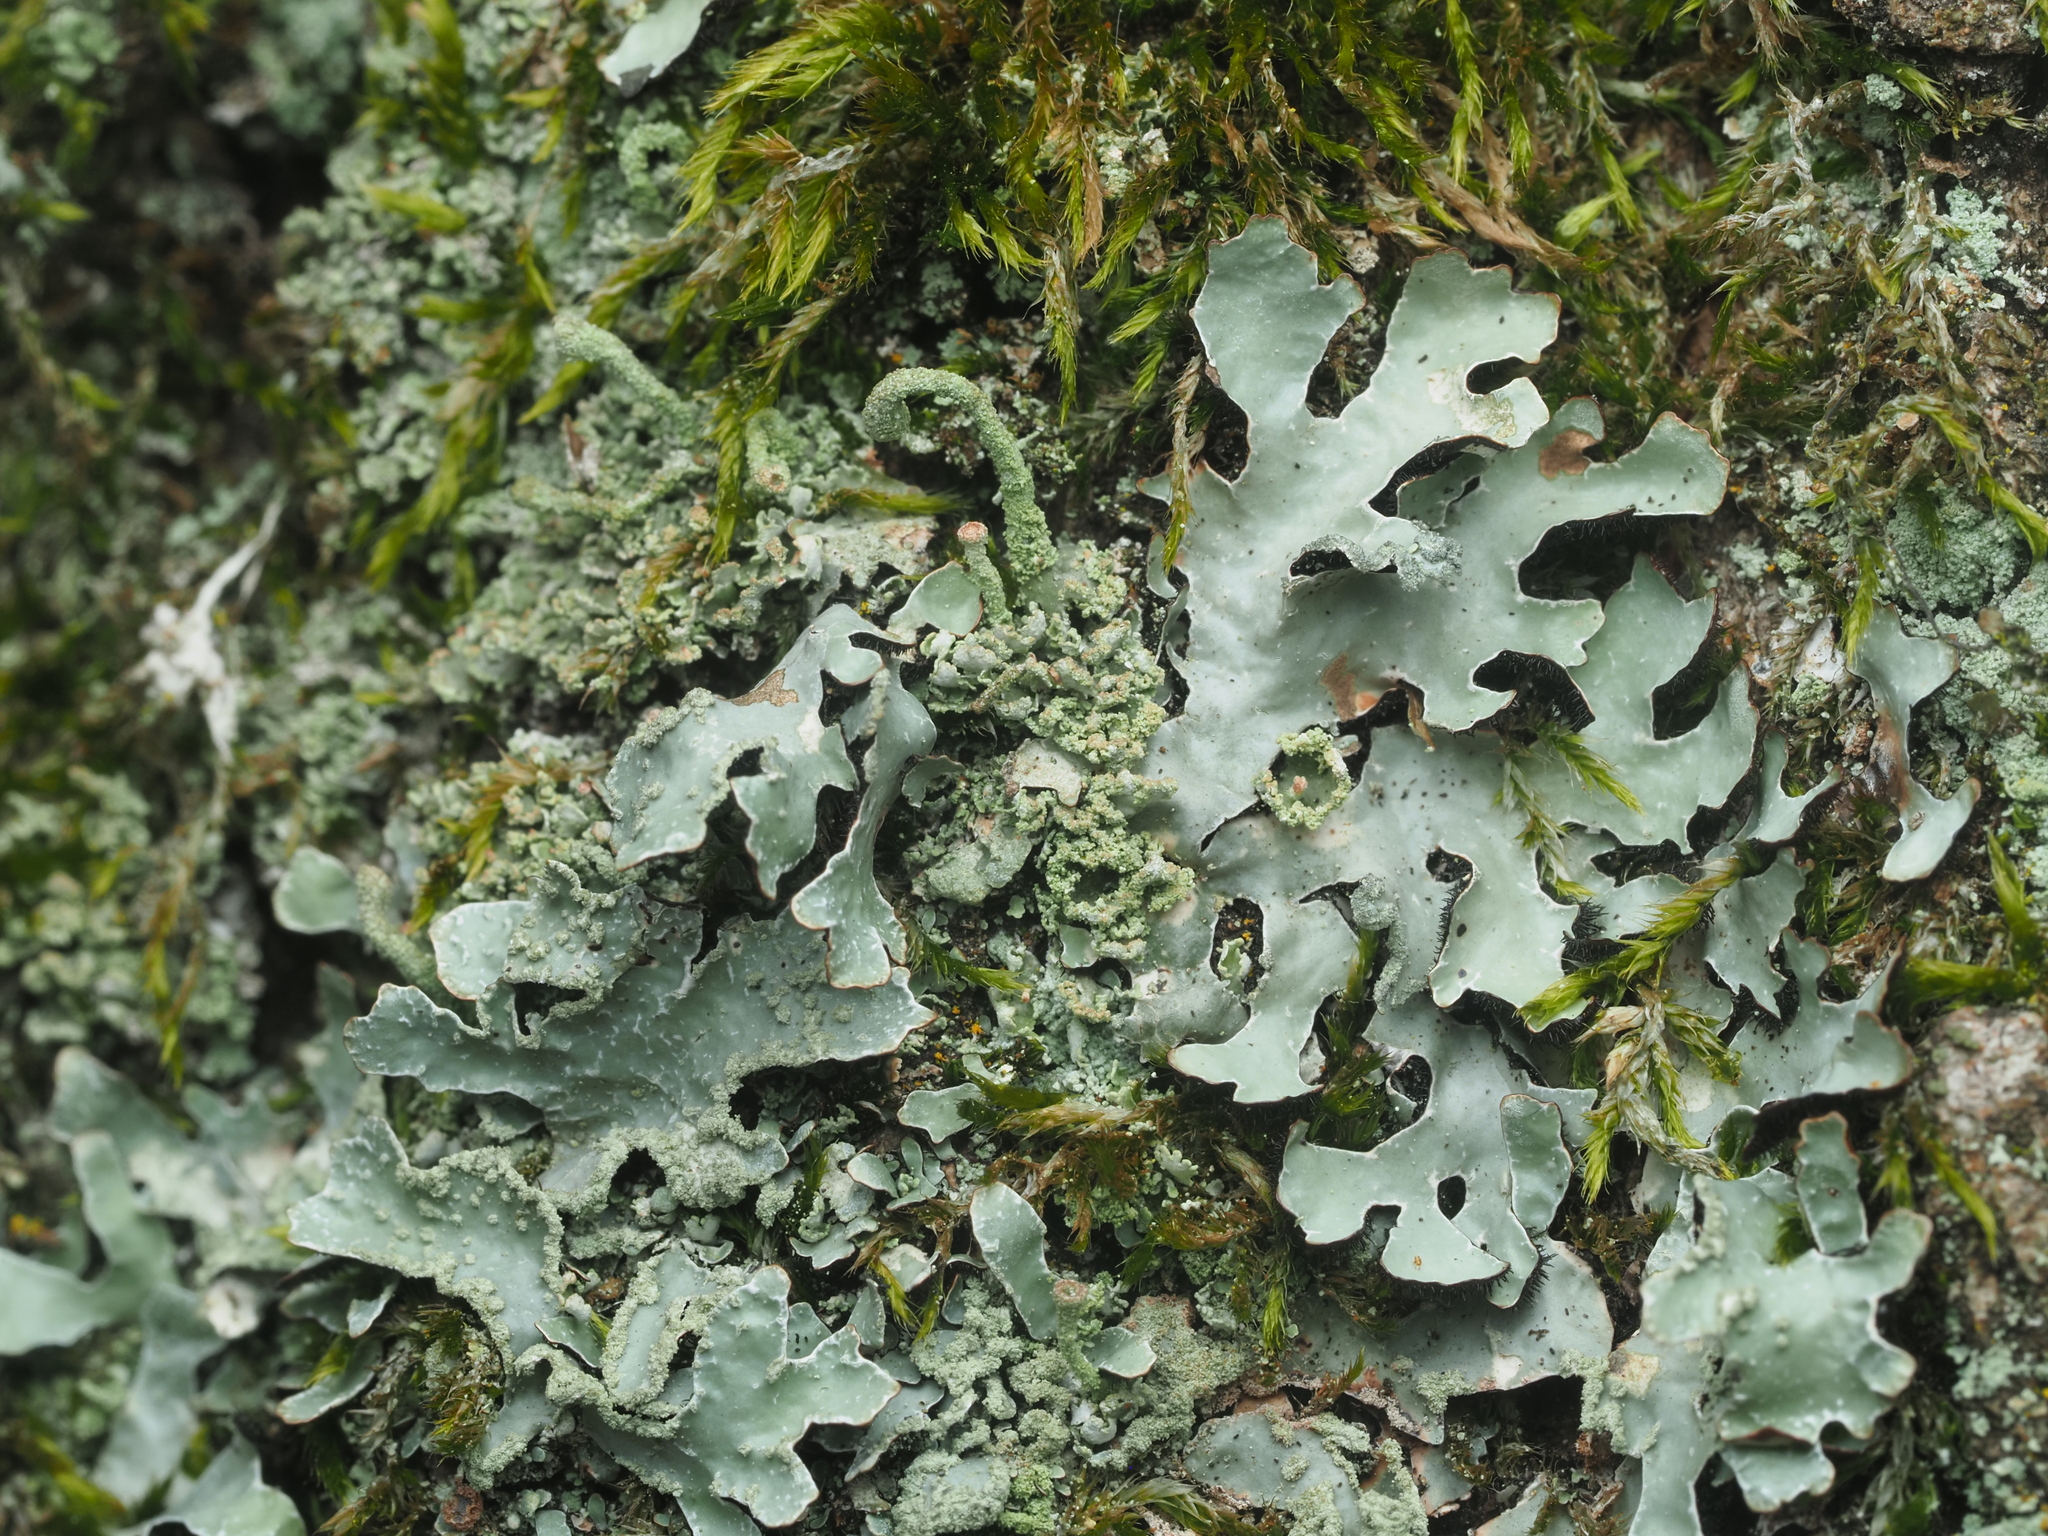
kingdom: Fungi
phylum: Ascomycota
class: Lecanoromycetes
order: Lecanorales
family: Parmeliaceae
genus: Parmelia
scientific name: Parmelia sulcata
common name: Netted shield lichen
